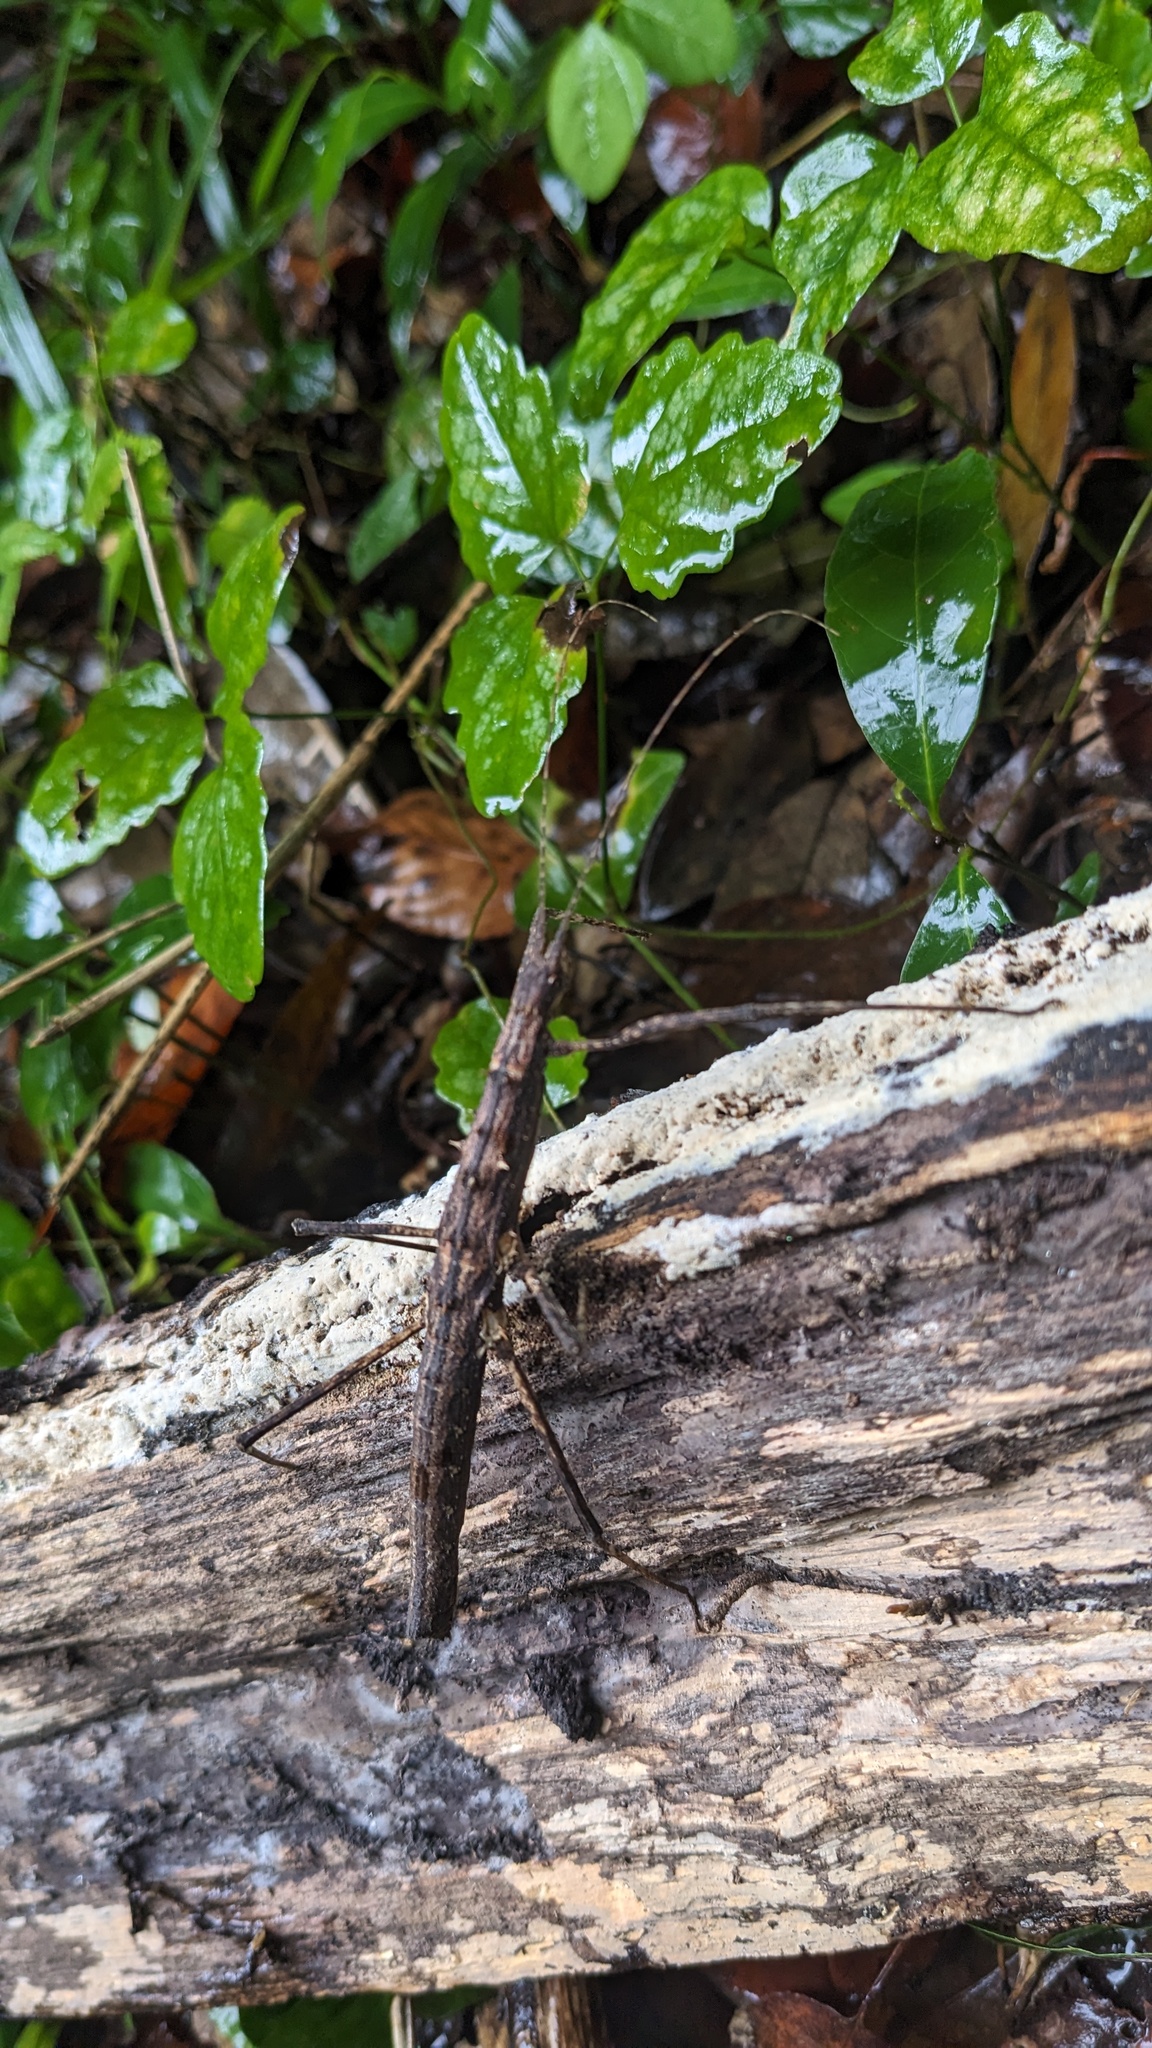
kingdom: Animalia
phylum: Arthropoda
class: Insecta
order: Phasmida
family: Lonchodidae
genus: Neohirasea
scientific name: Neohirasea japonica
